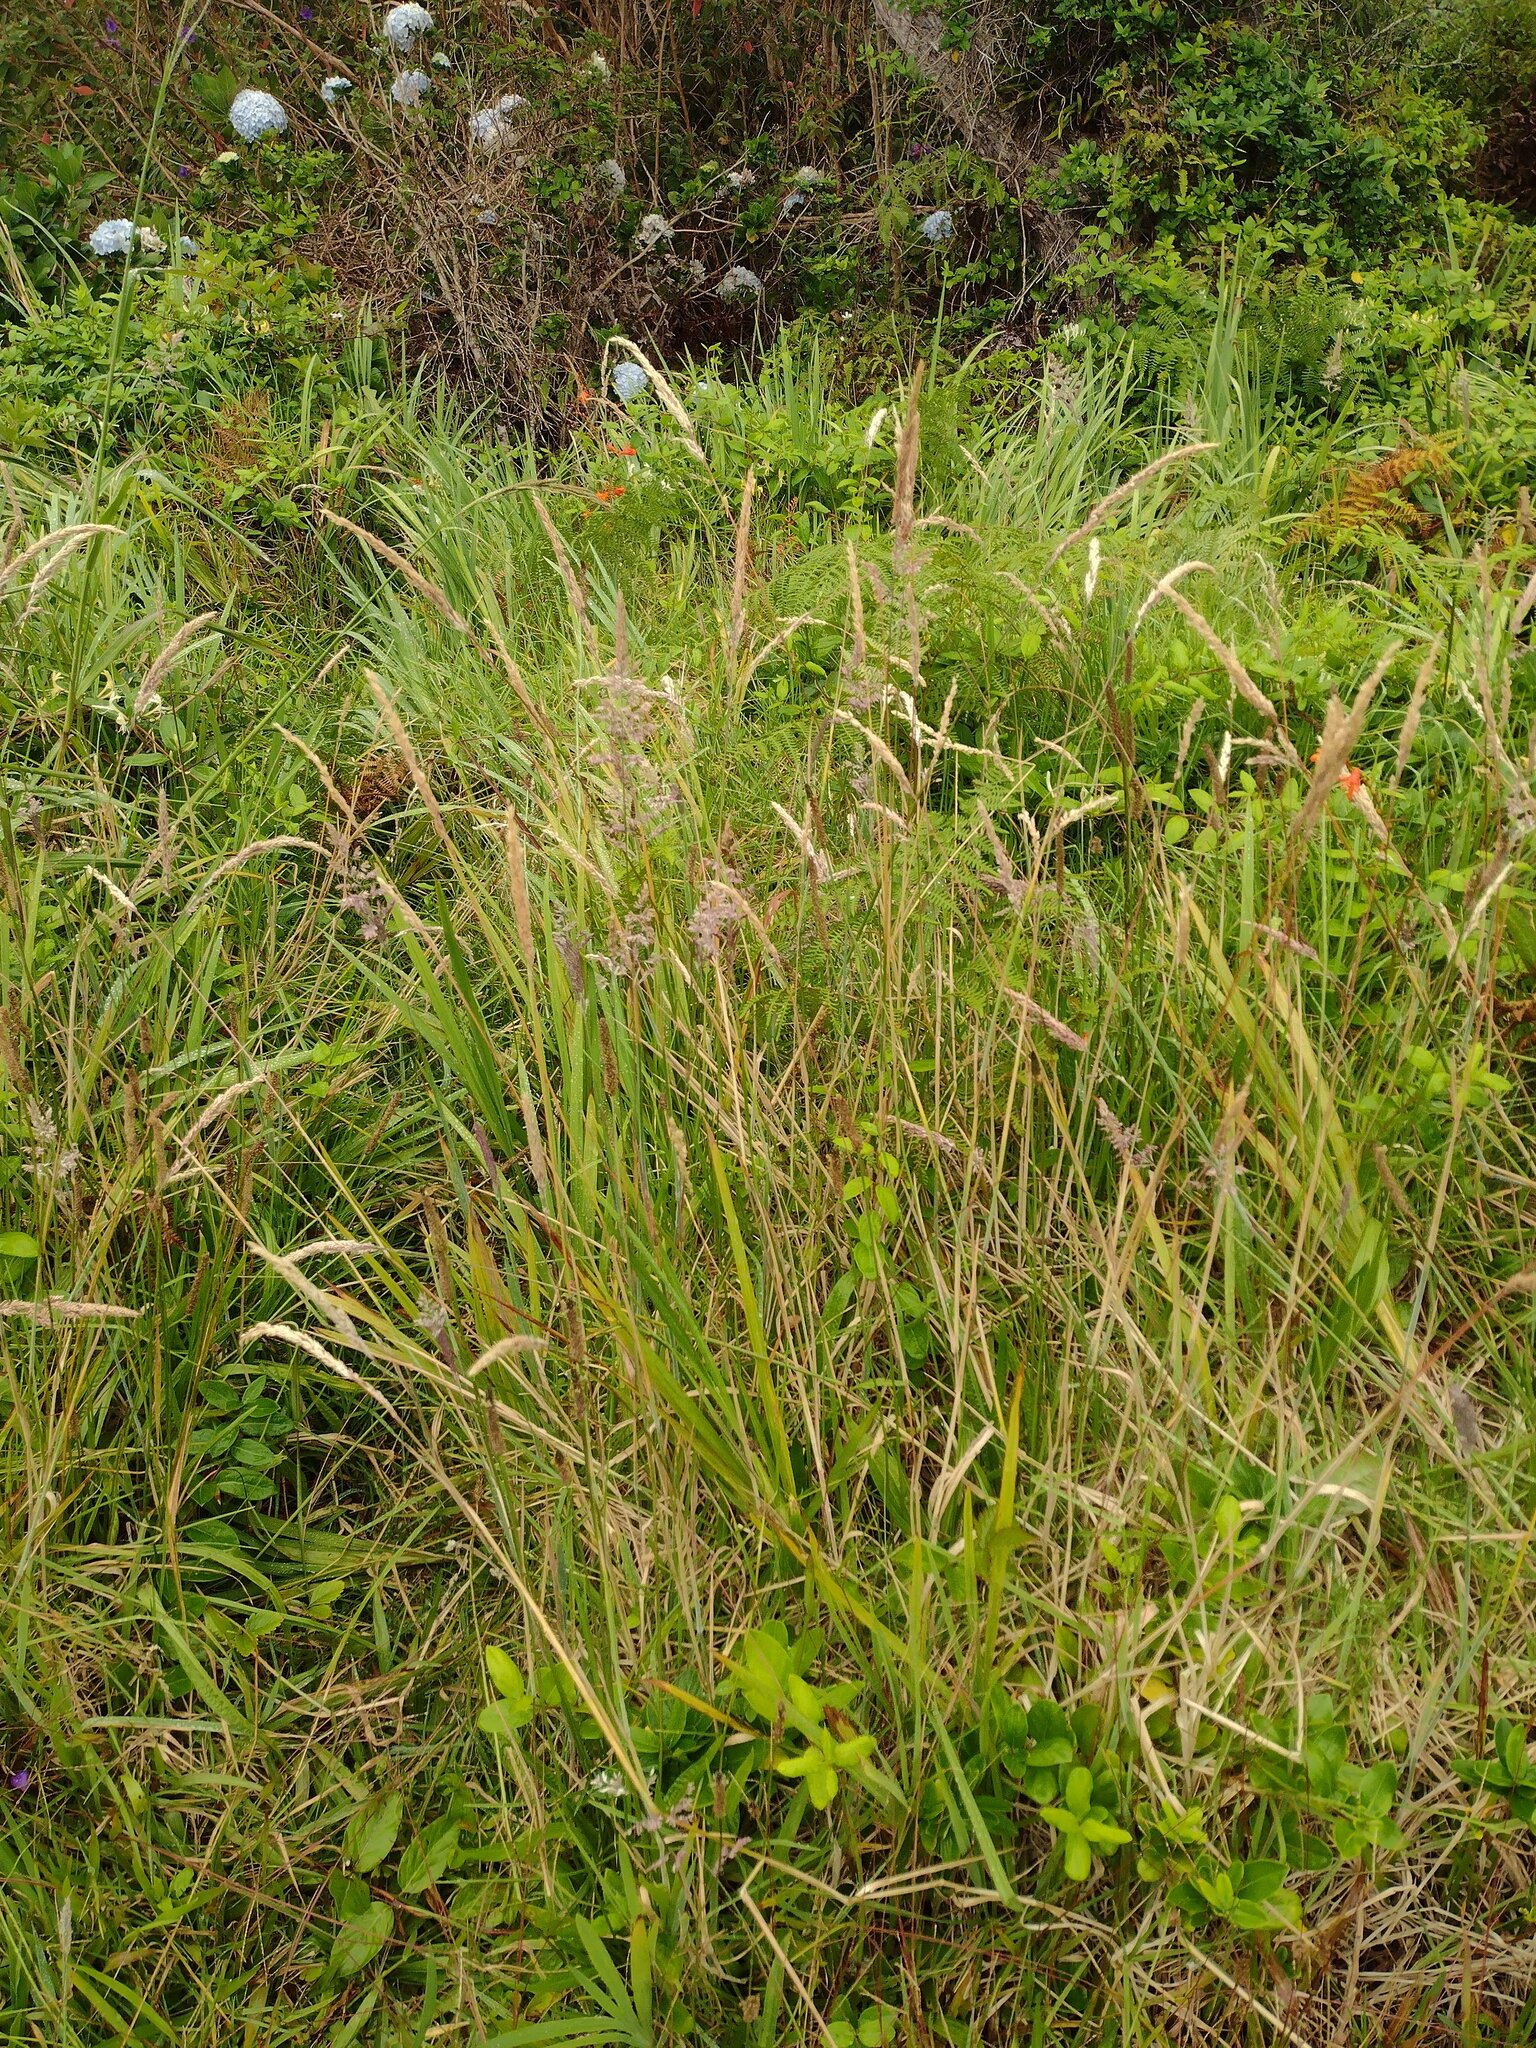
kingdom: Plantae
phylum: Tracheophyta
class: Liliopsida
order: Poales
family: Poaceae
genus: Holcus
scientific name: Holcus lanatus
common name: Yorkshire-fog
